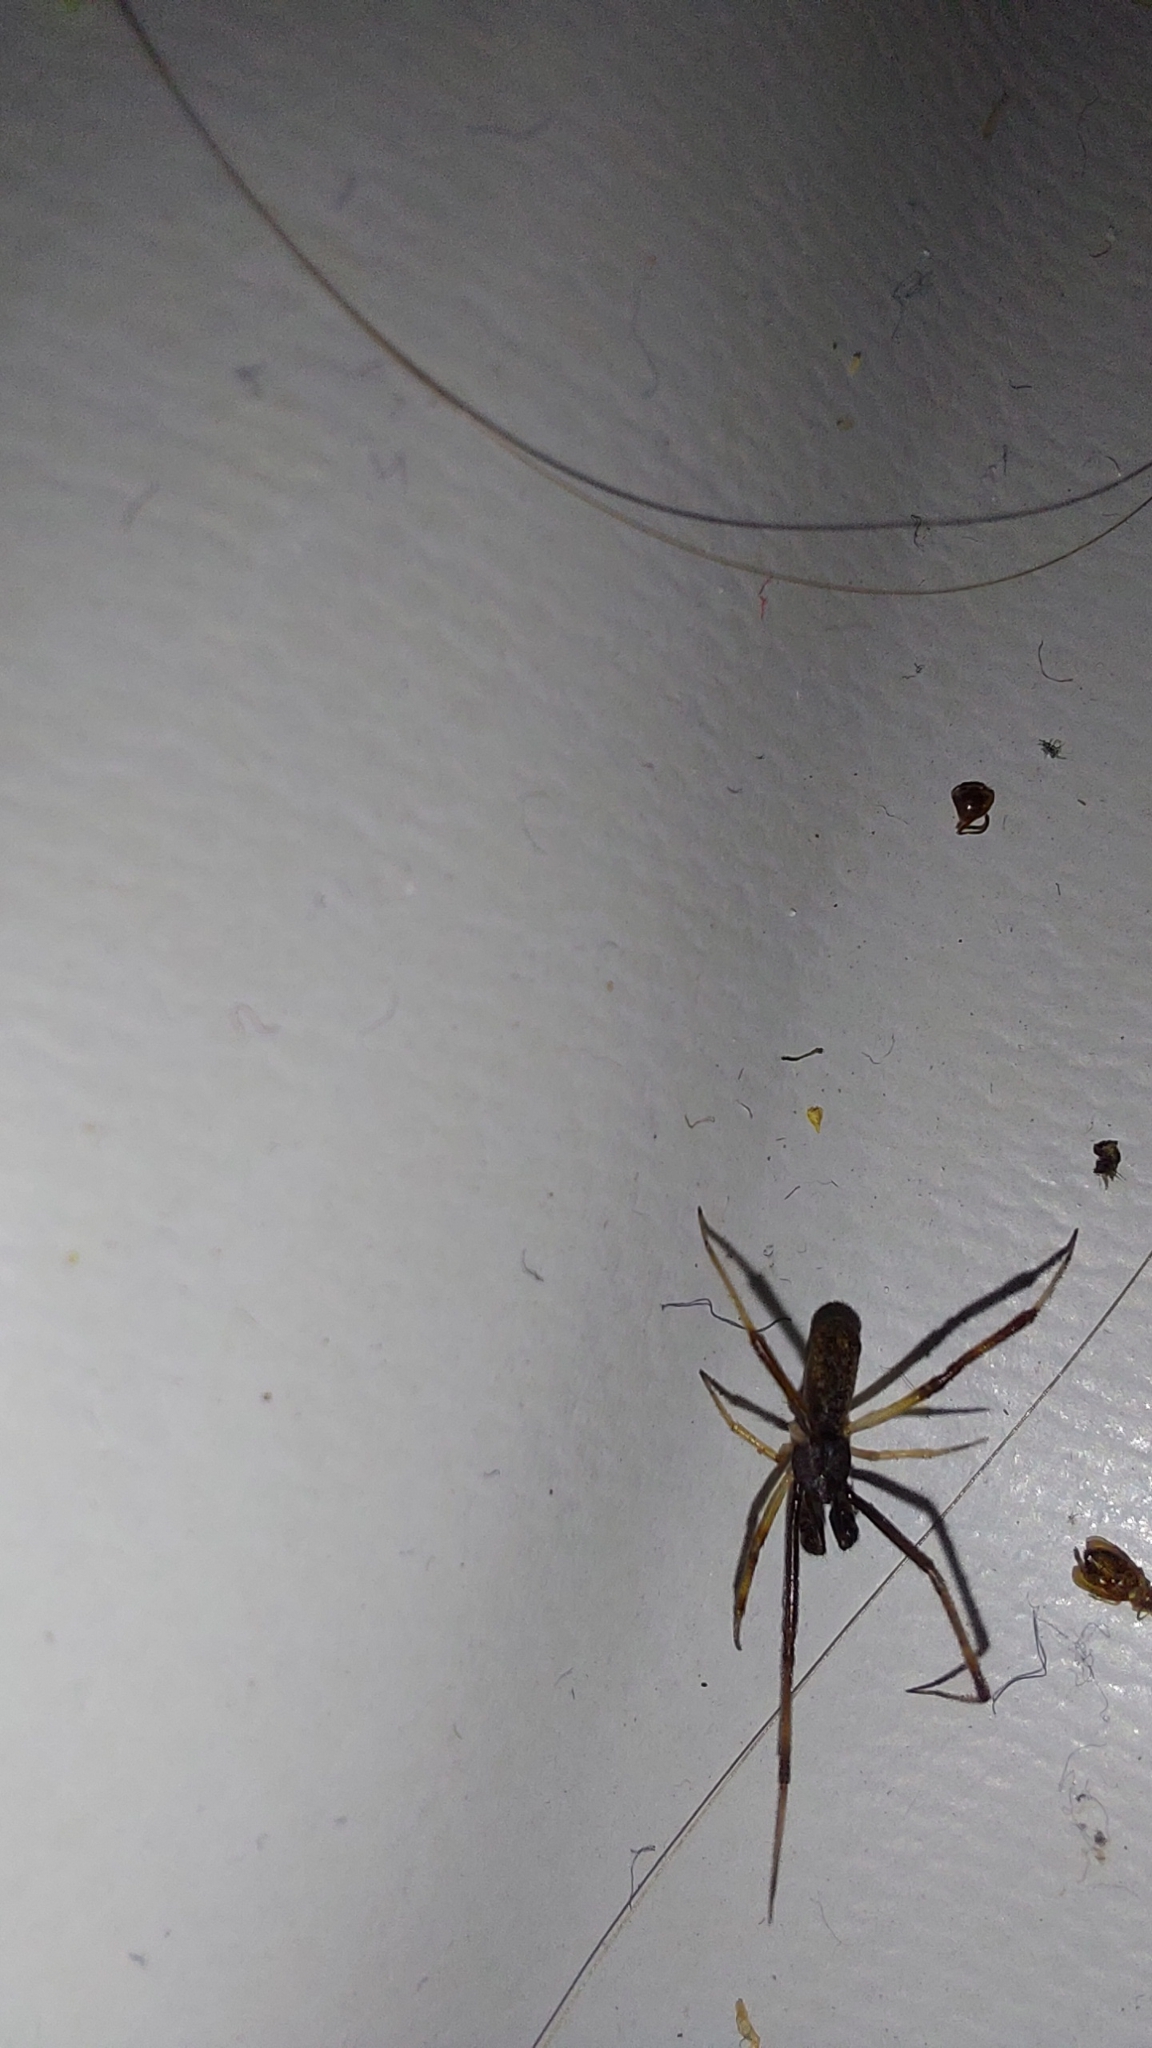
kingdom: Animalia
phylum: Arthropoda
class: Arachnida
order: Araneae
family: Theridiidae
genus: Episinus
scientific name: Episinus truncatus
